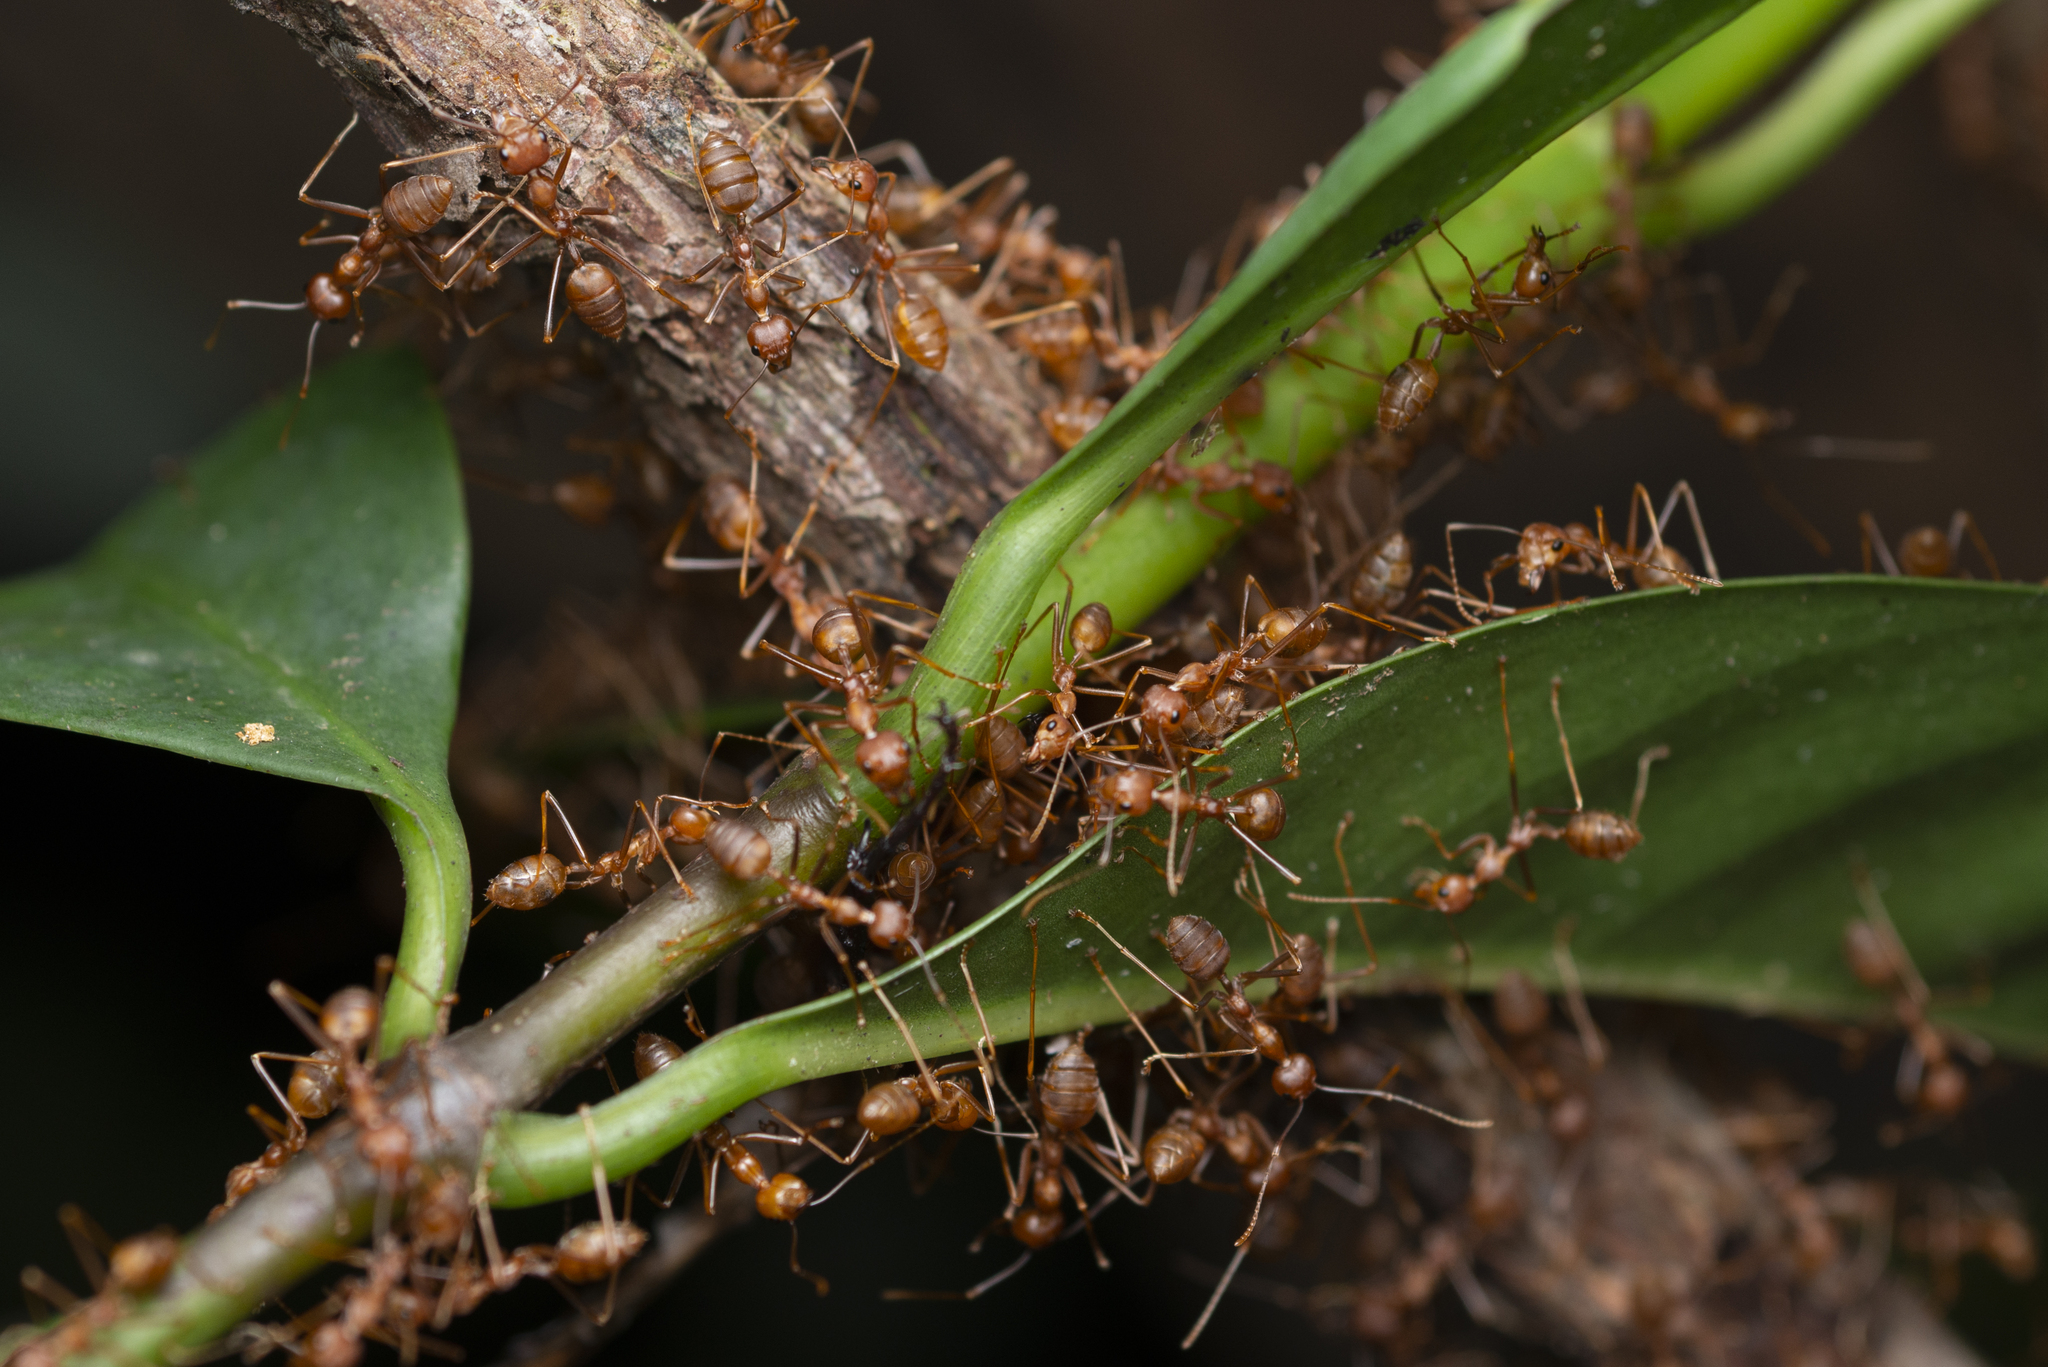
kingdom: Animalia
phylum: Arthropoda
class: Insecta
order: Hymenoptera
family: Formicidae
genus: Oecophylla
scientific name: Oecophylla smaragdina
